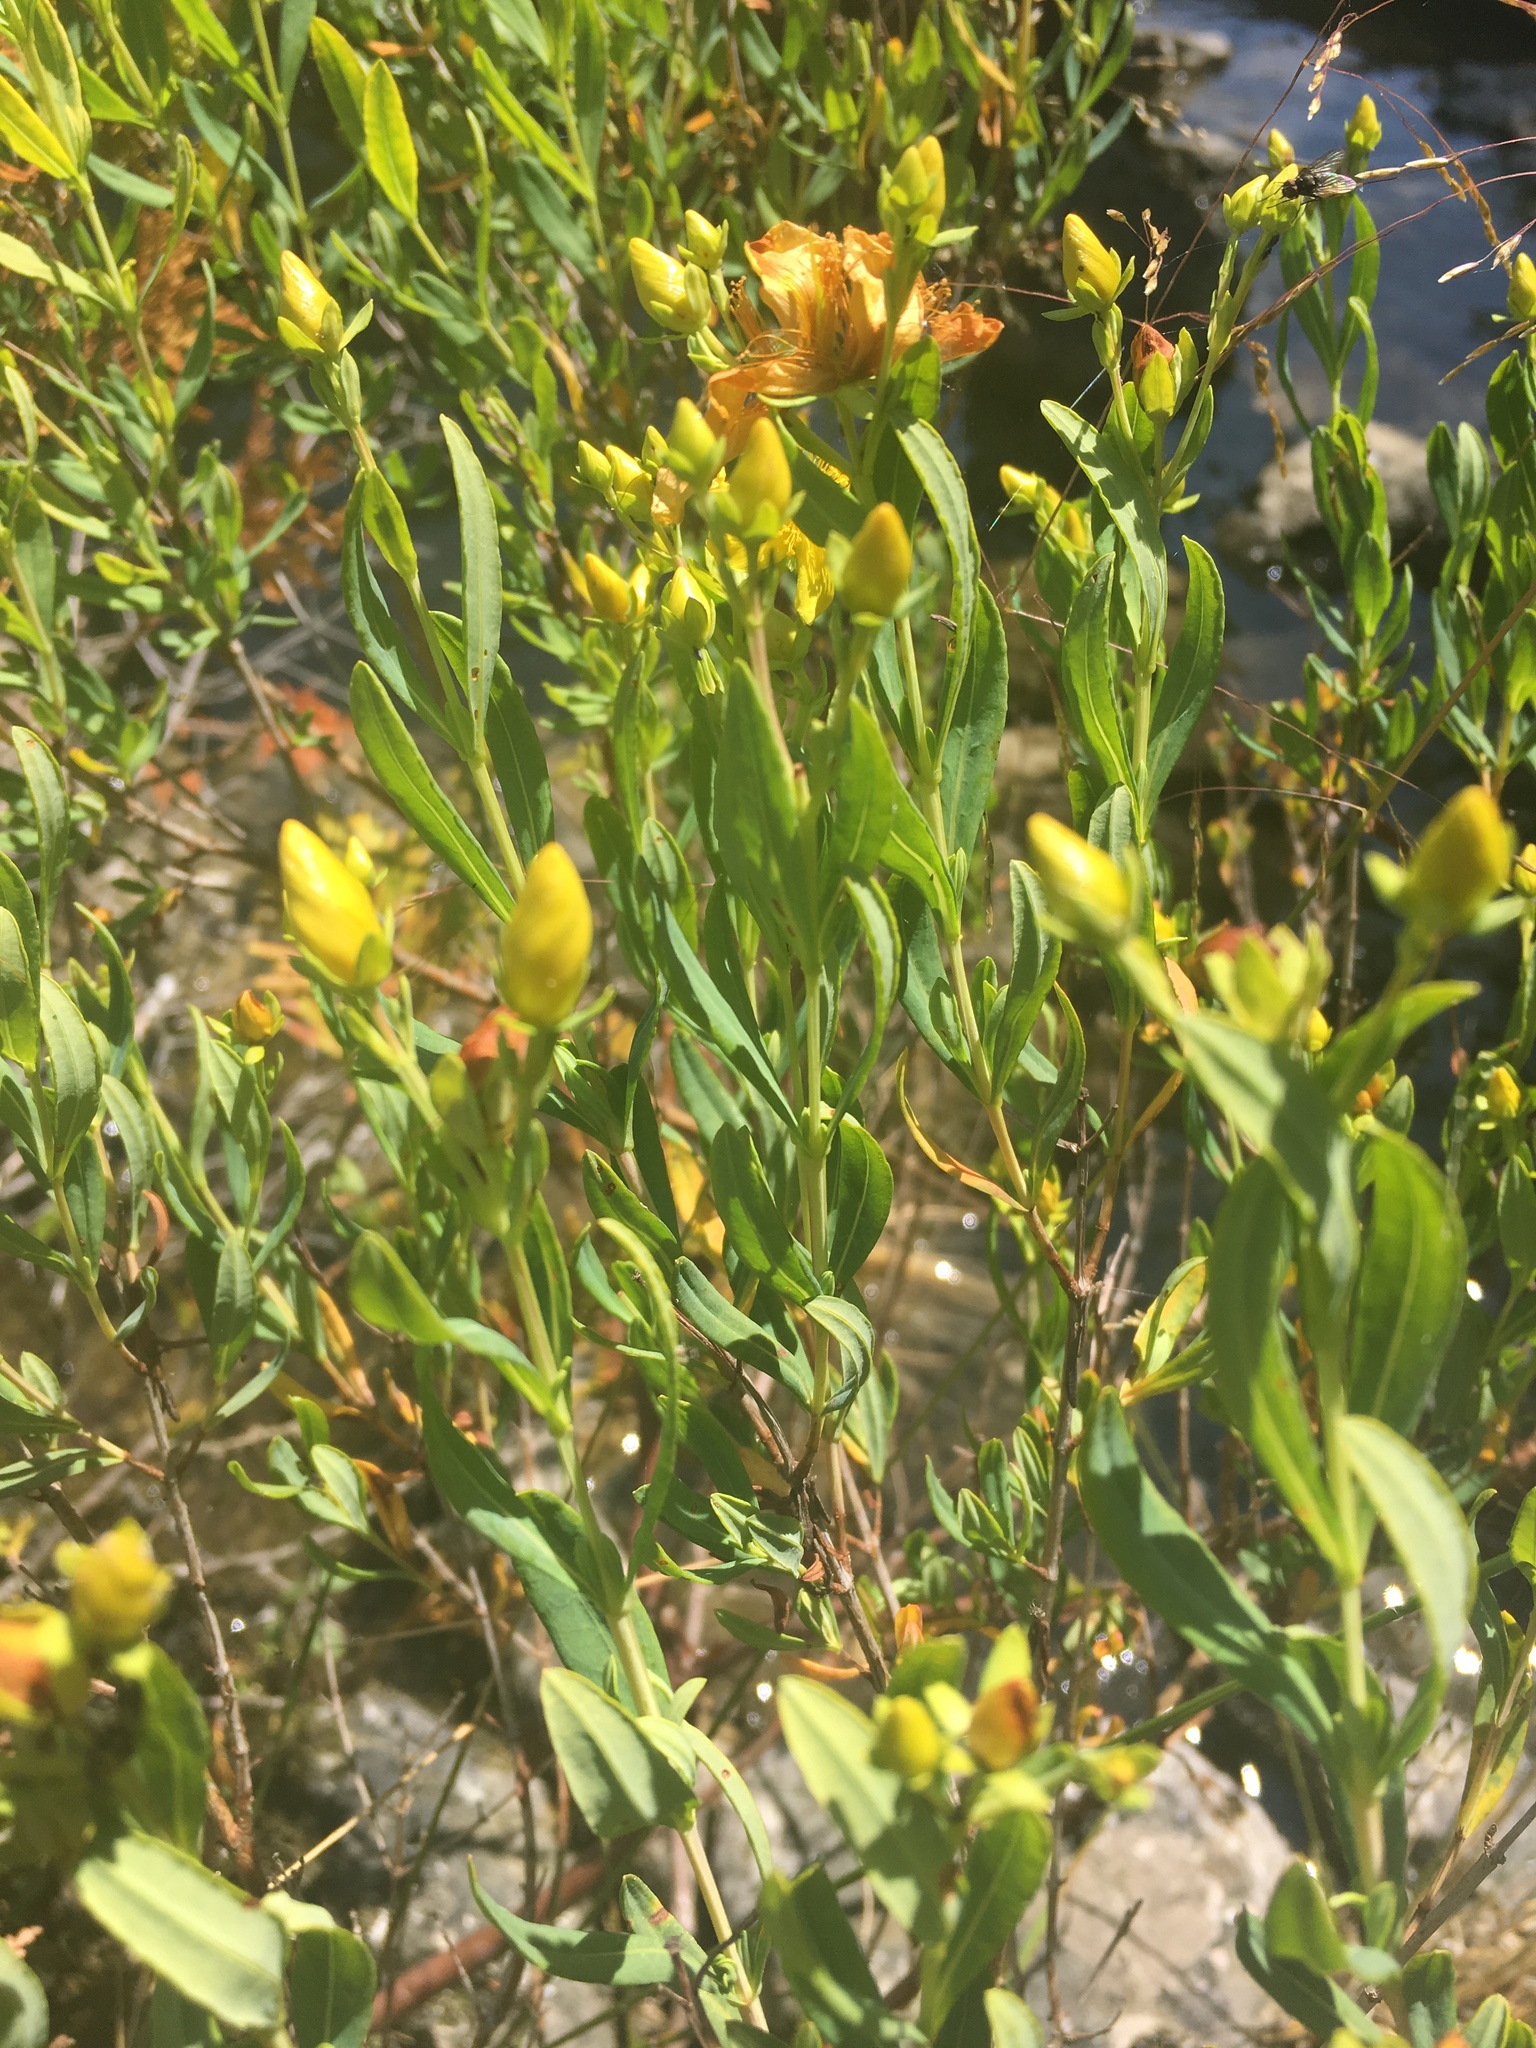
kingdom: Plantae
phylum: Tracheophyta
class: Magnoliopsida
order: Malpighiales
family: Hypericaceae
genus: Hypericum
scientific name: Hypericum kalmianum
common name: Kalm's st. john's-wort
